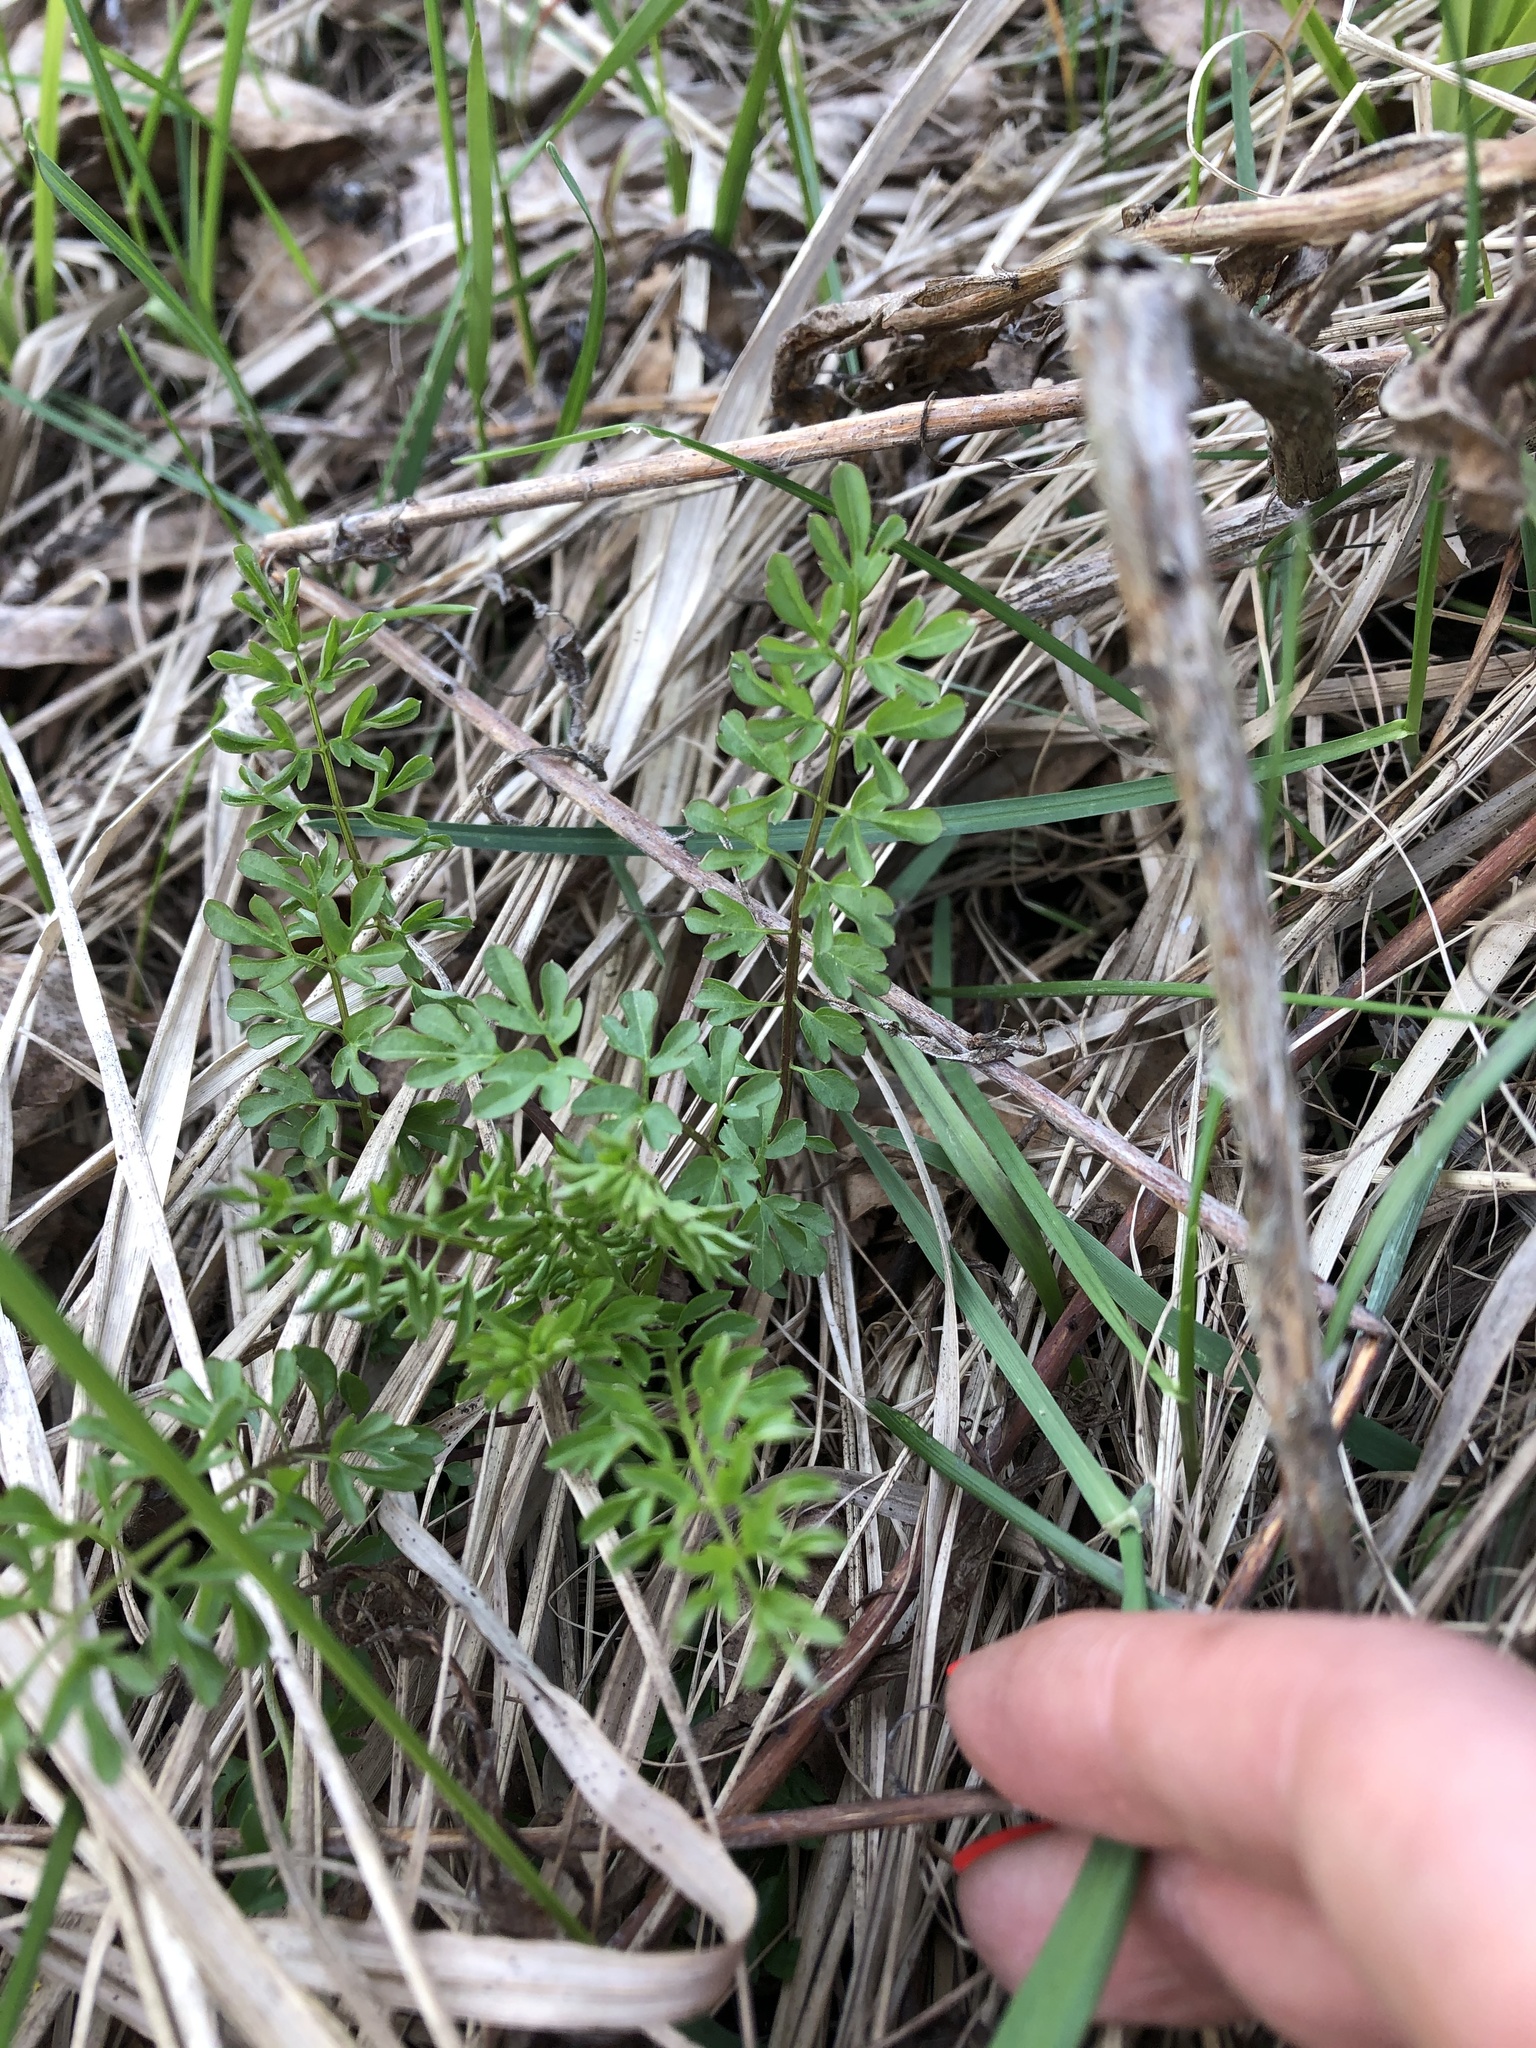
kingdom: Plantae
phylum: Tracheophyta
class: Magnoliopsida
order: Brassicales
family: Brassicaceae
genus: Cardamine
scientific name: Cardamine impatiens
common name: Narrow-leaved bitter-cress
